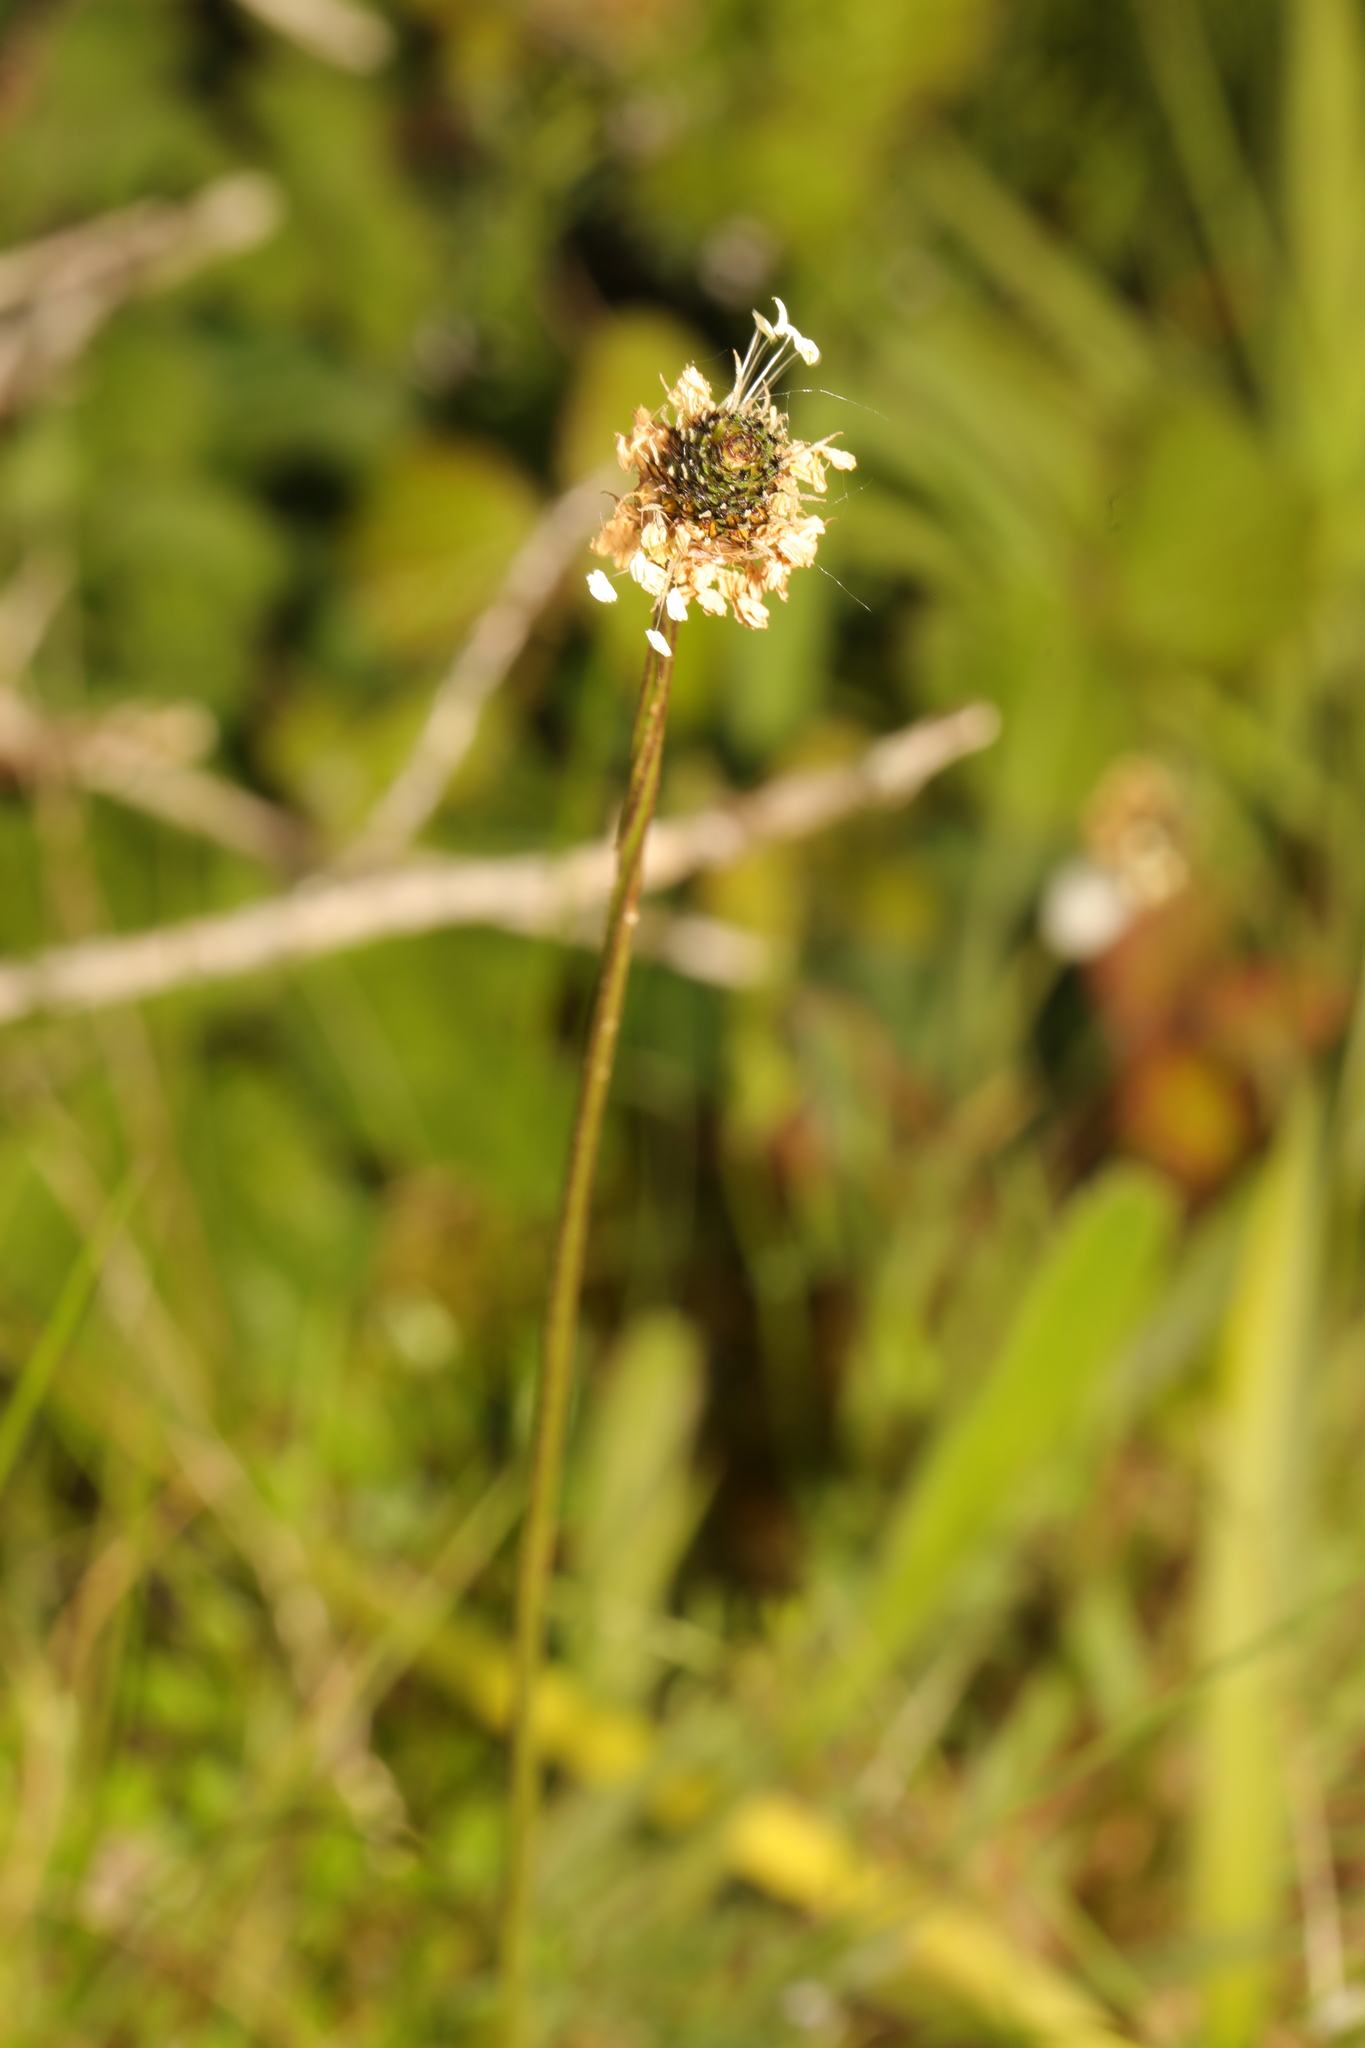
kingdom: Plantae
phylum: Tracheophyta
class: Magnoliopsida
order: Lamiales
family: Plantaginaceae
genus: Plantago
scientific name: Plantago lanceolata
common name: Ribwort plantain
